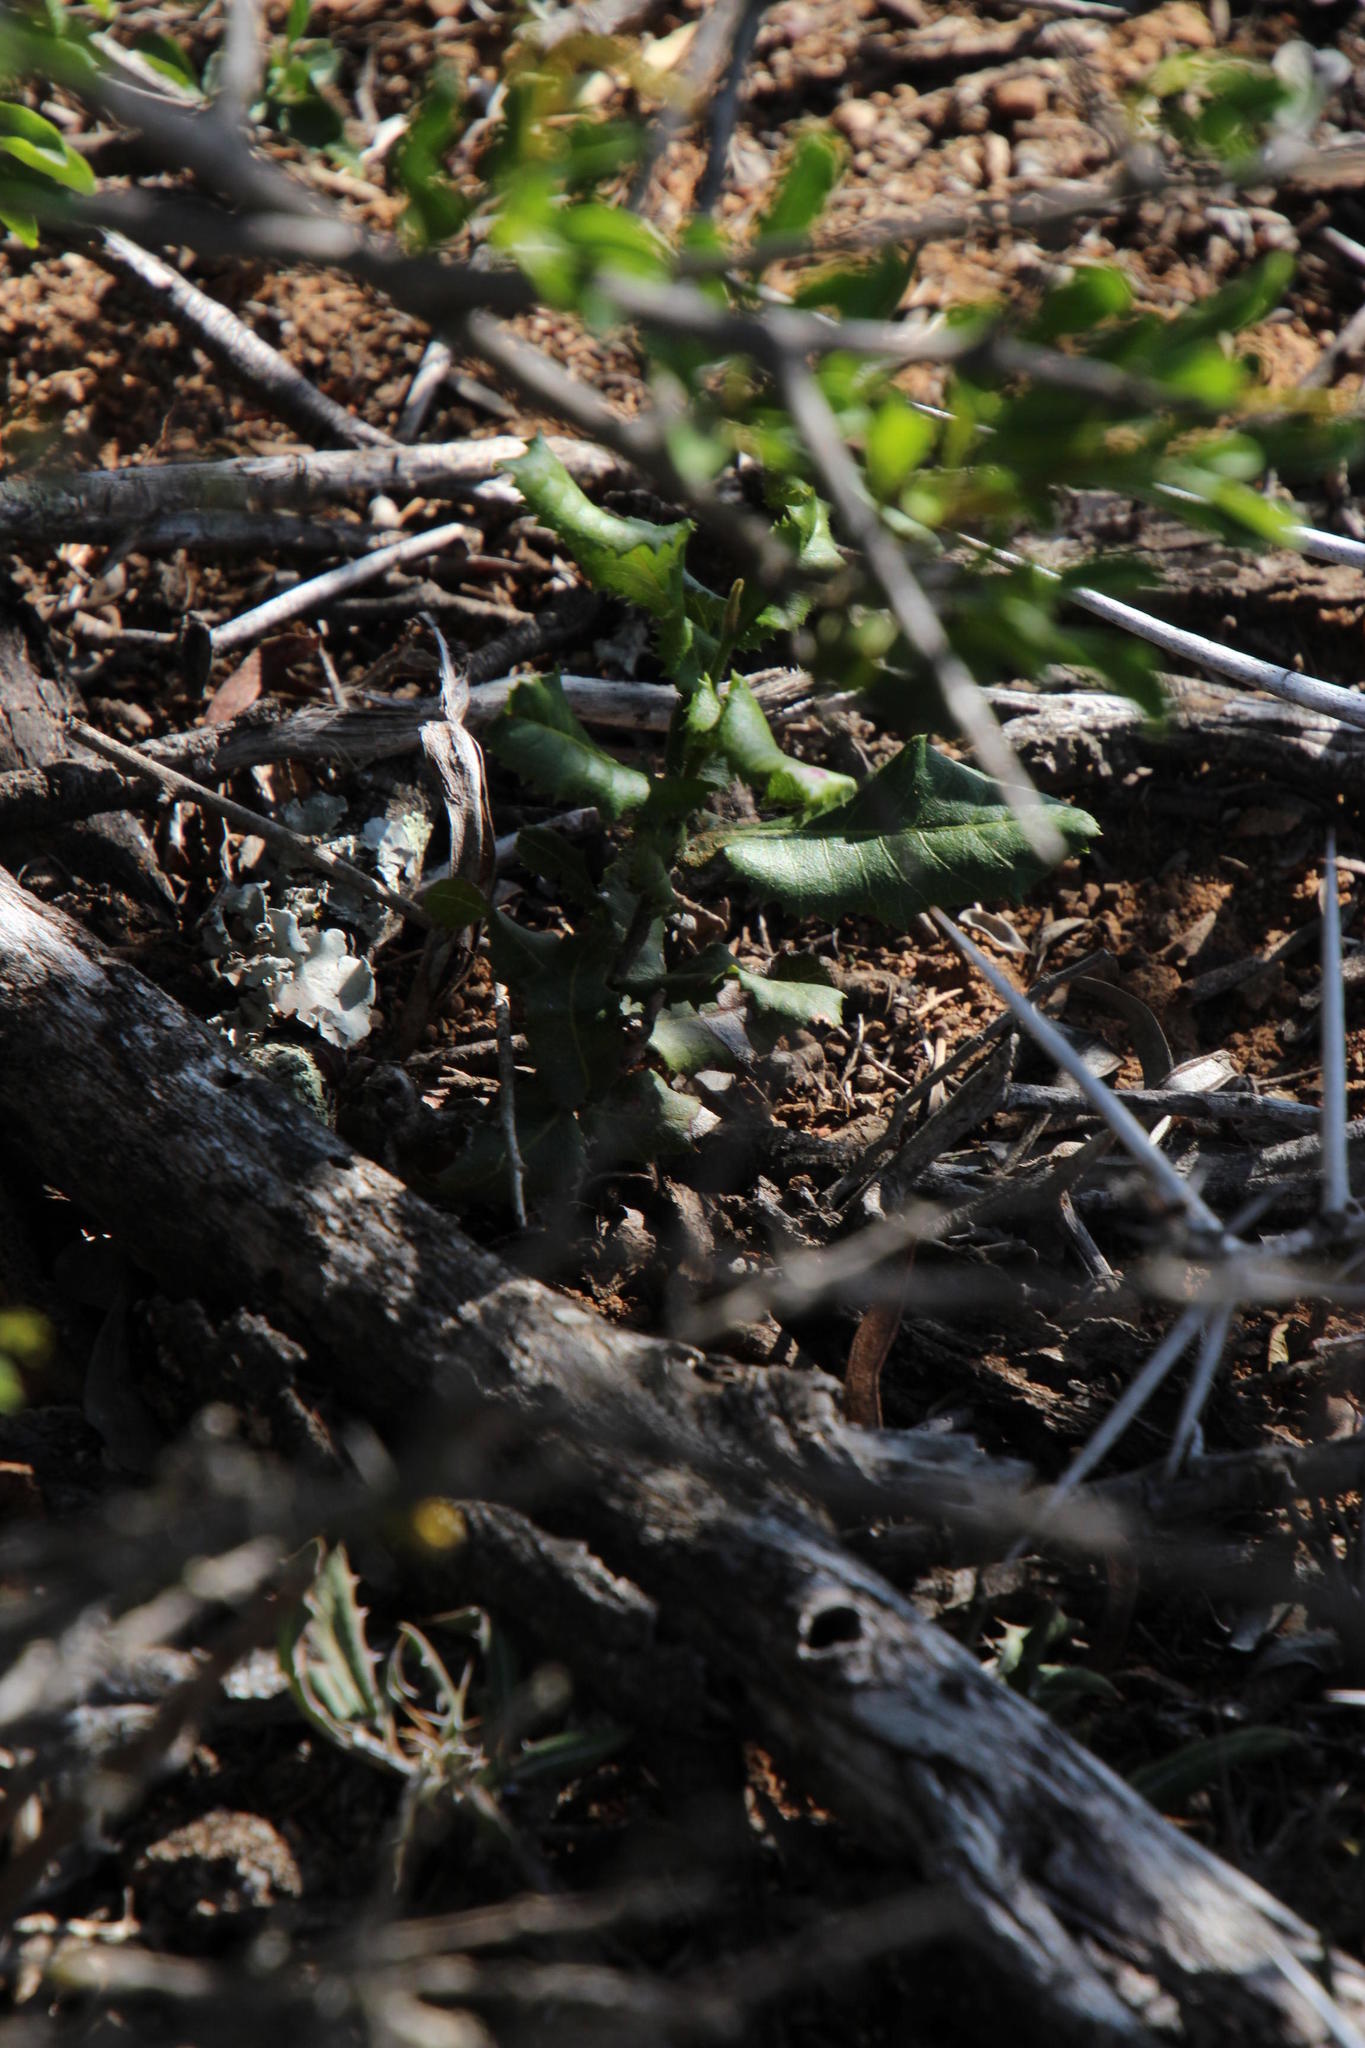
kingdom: Plantae
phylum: Tracheophyta
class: Magnoliopsida
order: Sapindales
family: Sapindaceae
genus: Pappea
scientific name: Pappea capensis
